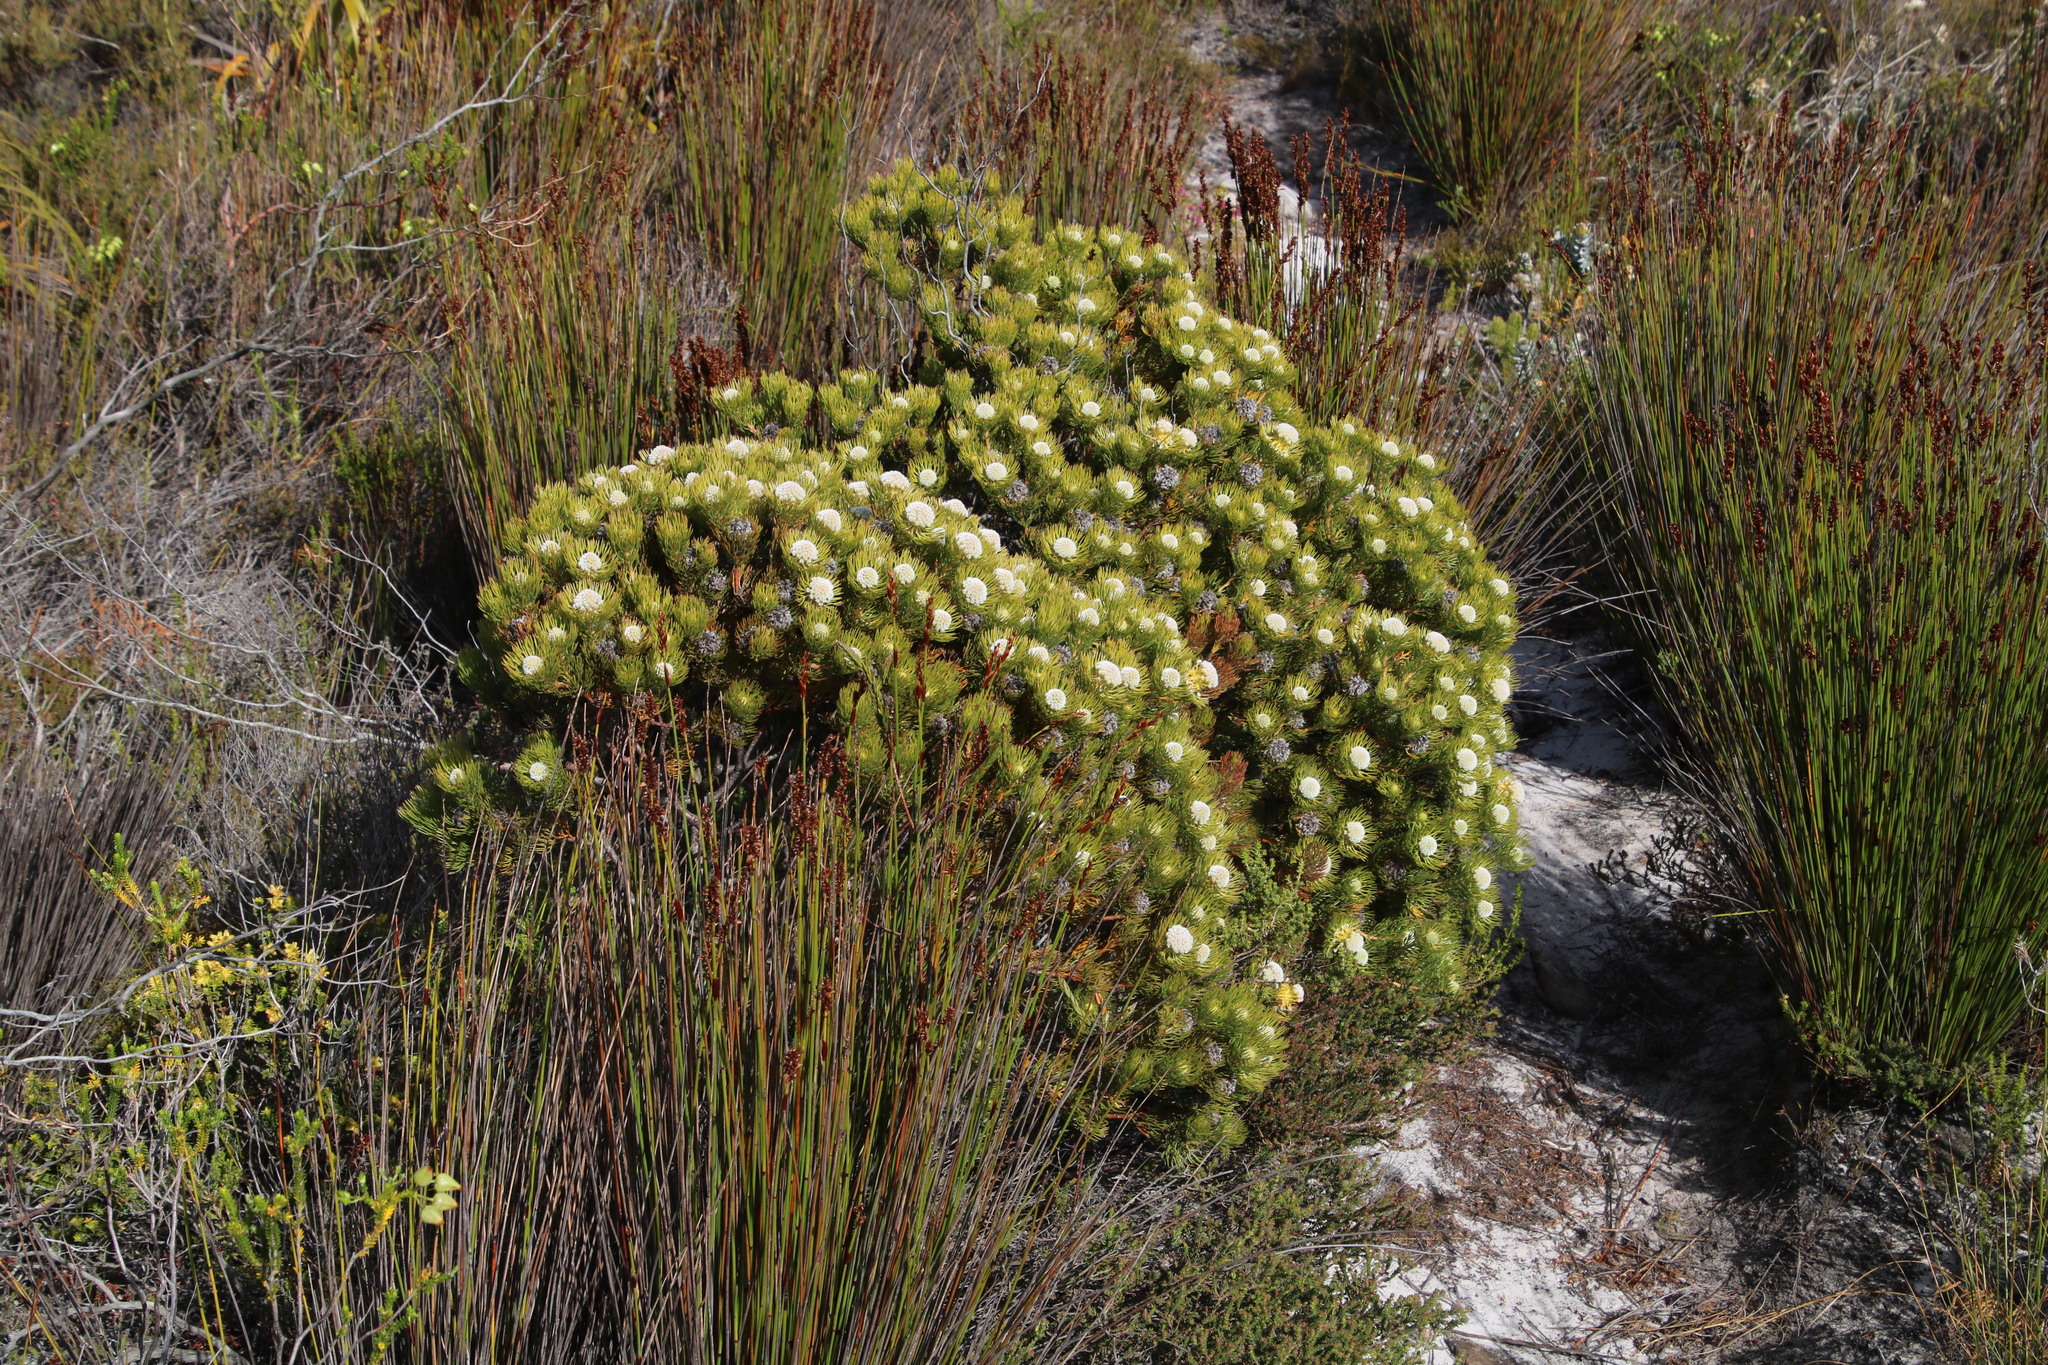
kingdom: Plantae
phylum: Tracheophyta
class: Magnoliopsida
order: Proteales
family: Proteaceae
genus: Serruria
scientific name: Serruria villosa
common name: Golden spiderhead
